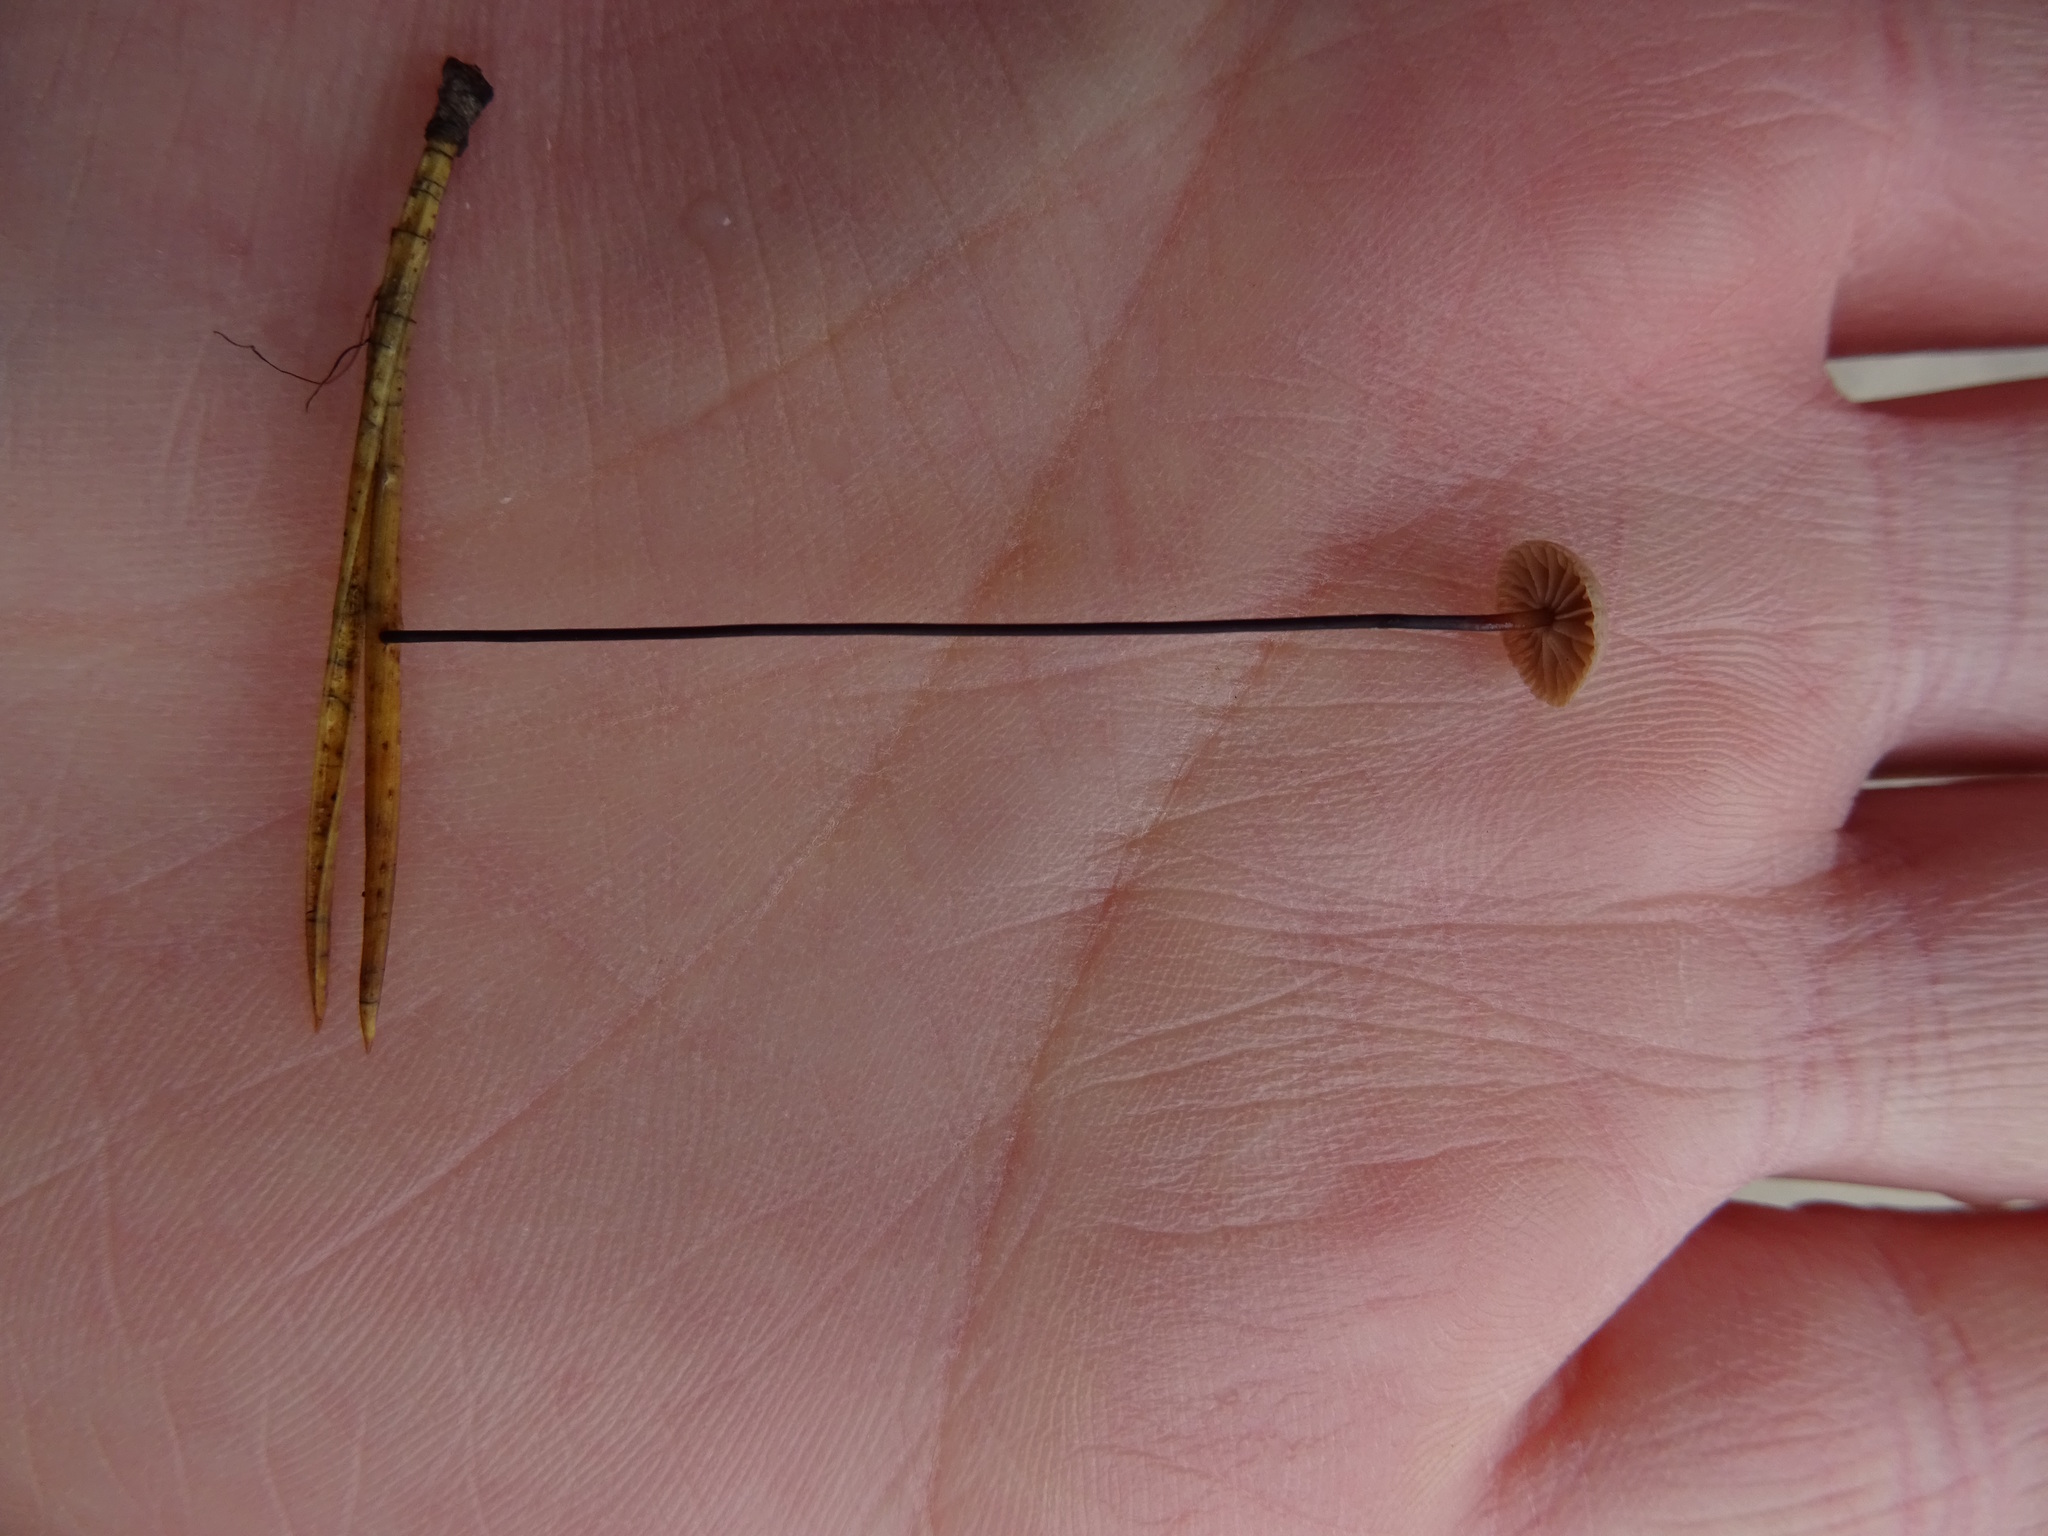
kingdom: Fungi
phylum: Basidiomycota
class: Agaricomycetes
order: Agaricales
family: Omphalotaceae
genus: Gymnopus
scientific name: Gymnopus androsaceus
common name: Horse-hair fungus
